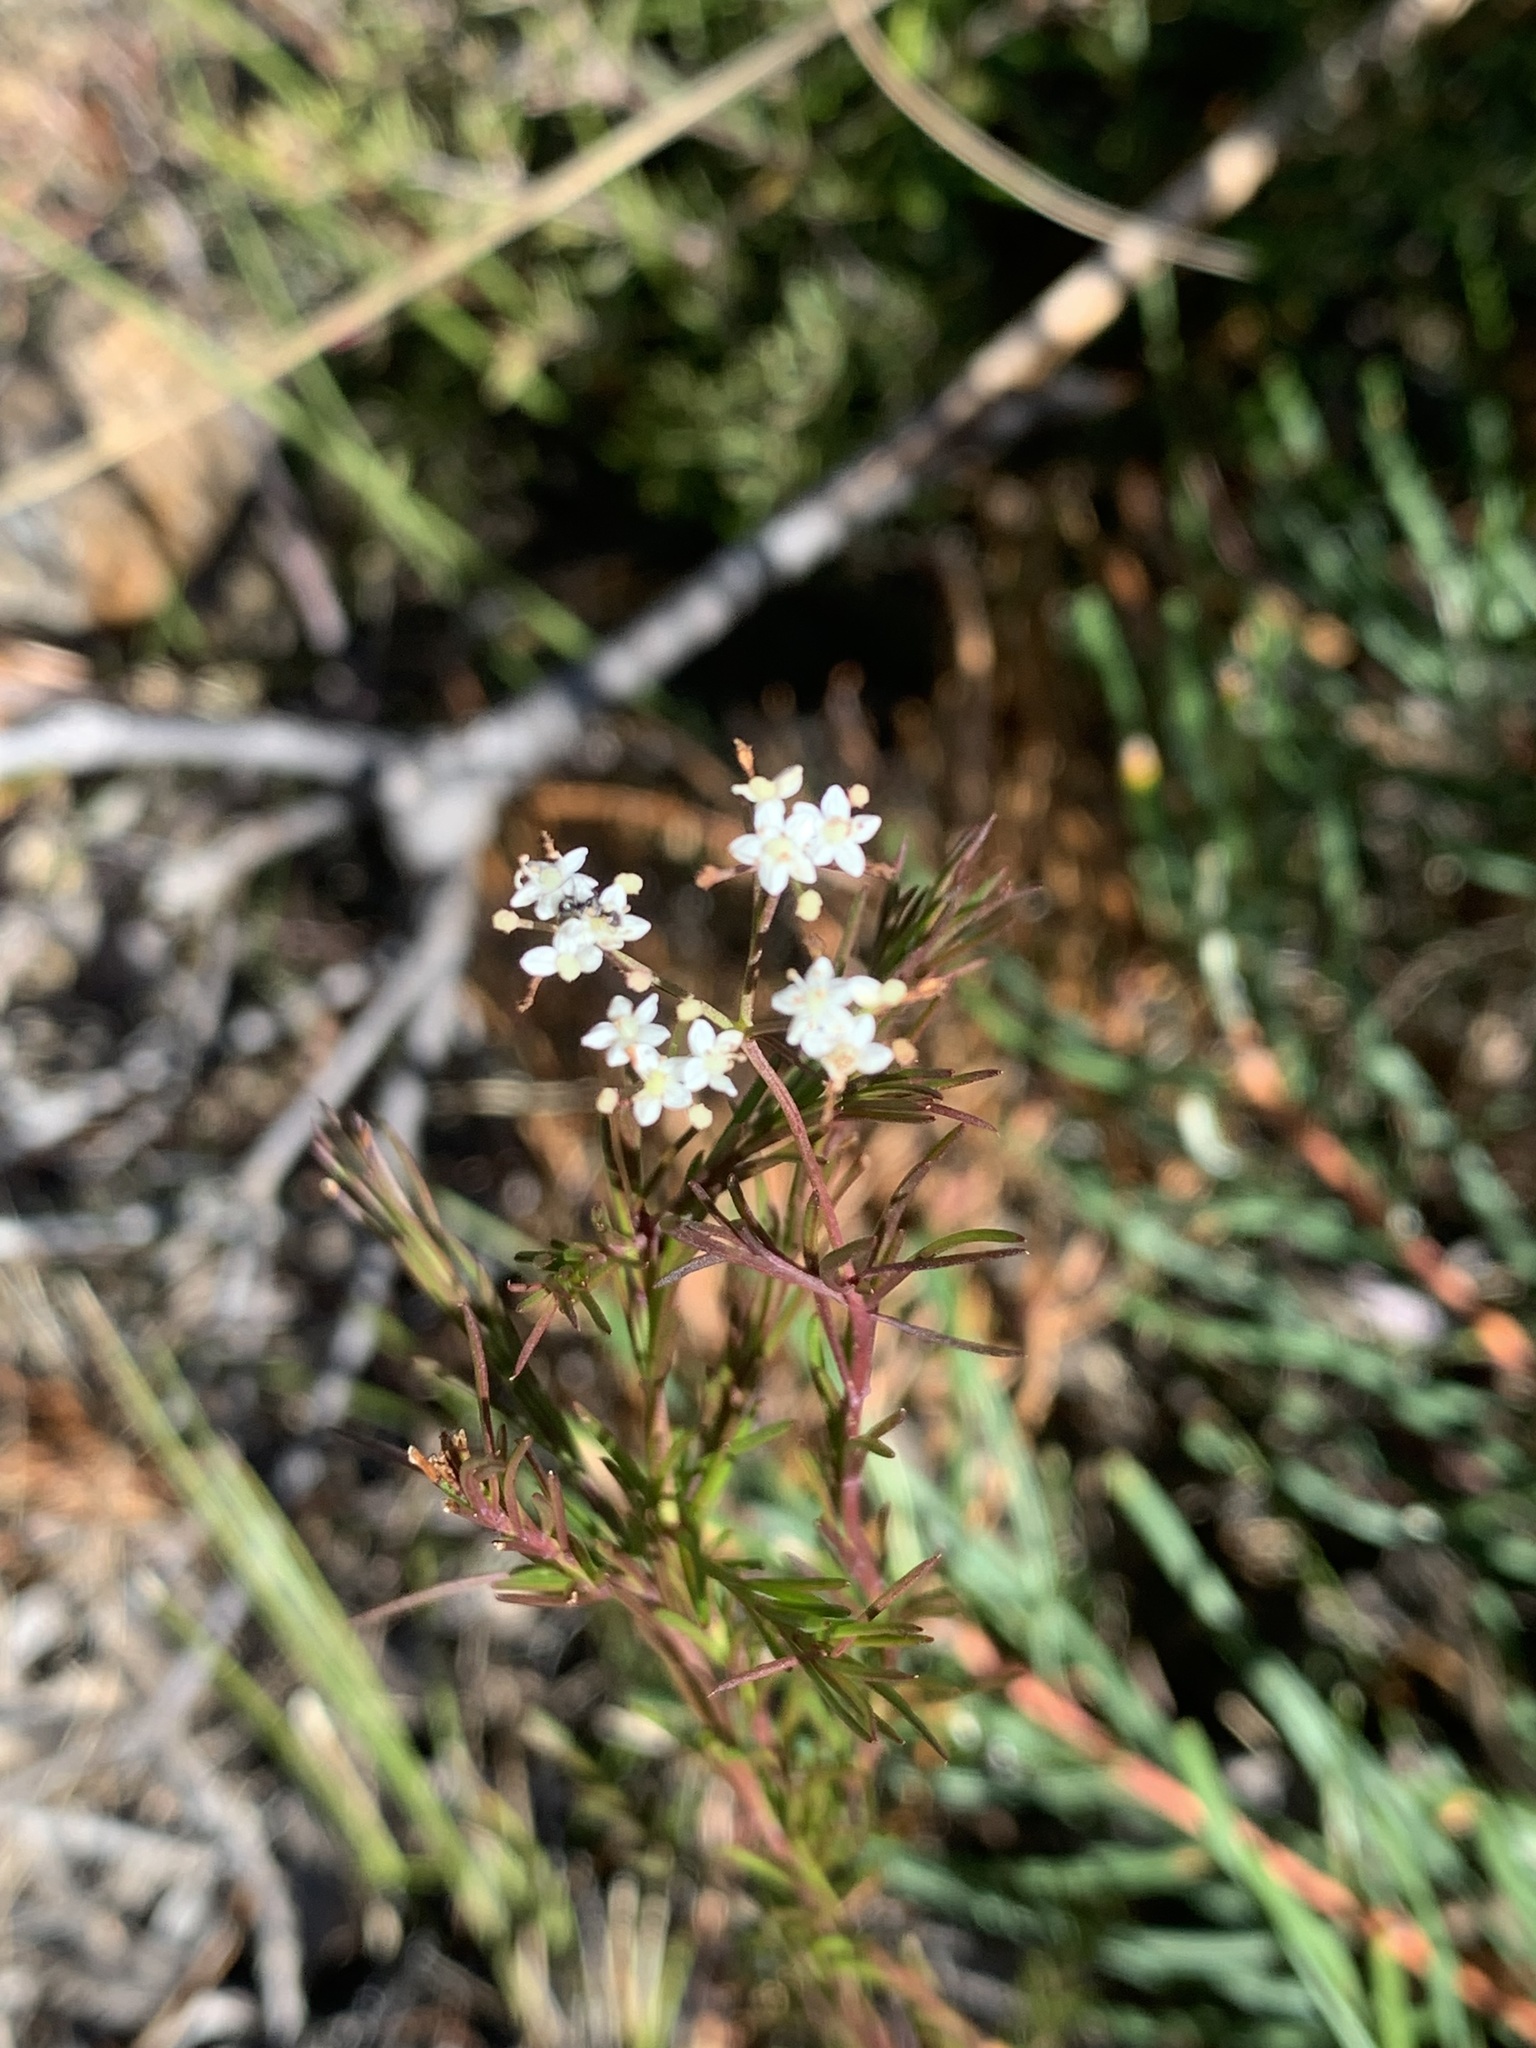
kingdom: Plantae
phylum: Tracheophyta
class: Magnoliopsida
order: Apiales
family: Apiaceae
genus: Platysace
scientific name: Platysace linearifolia
